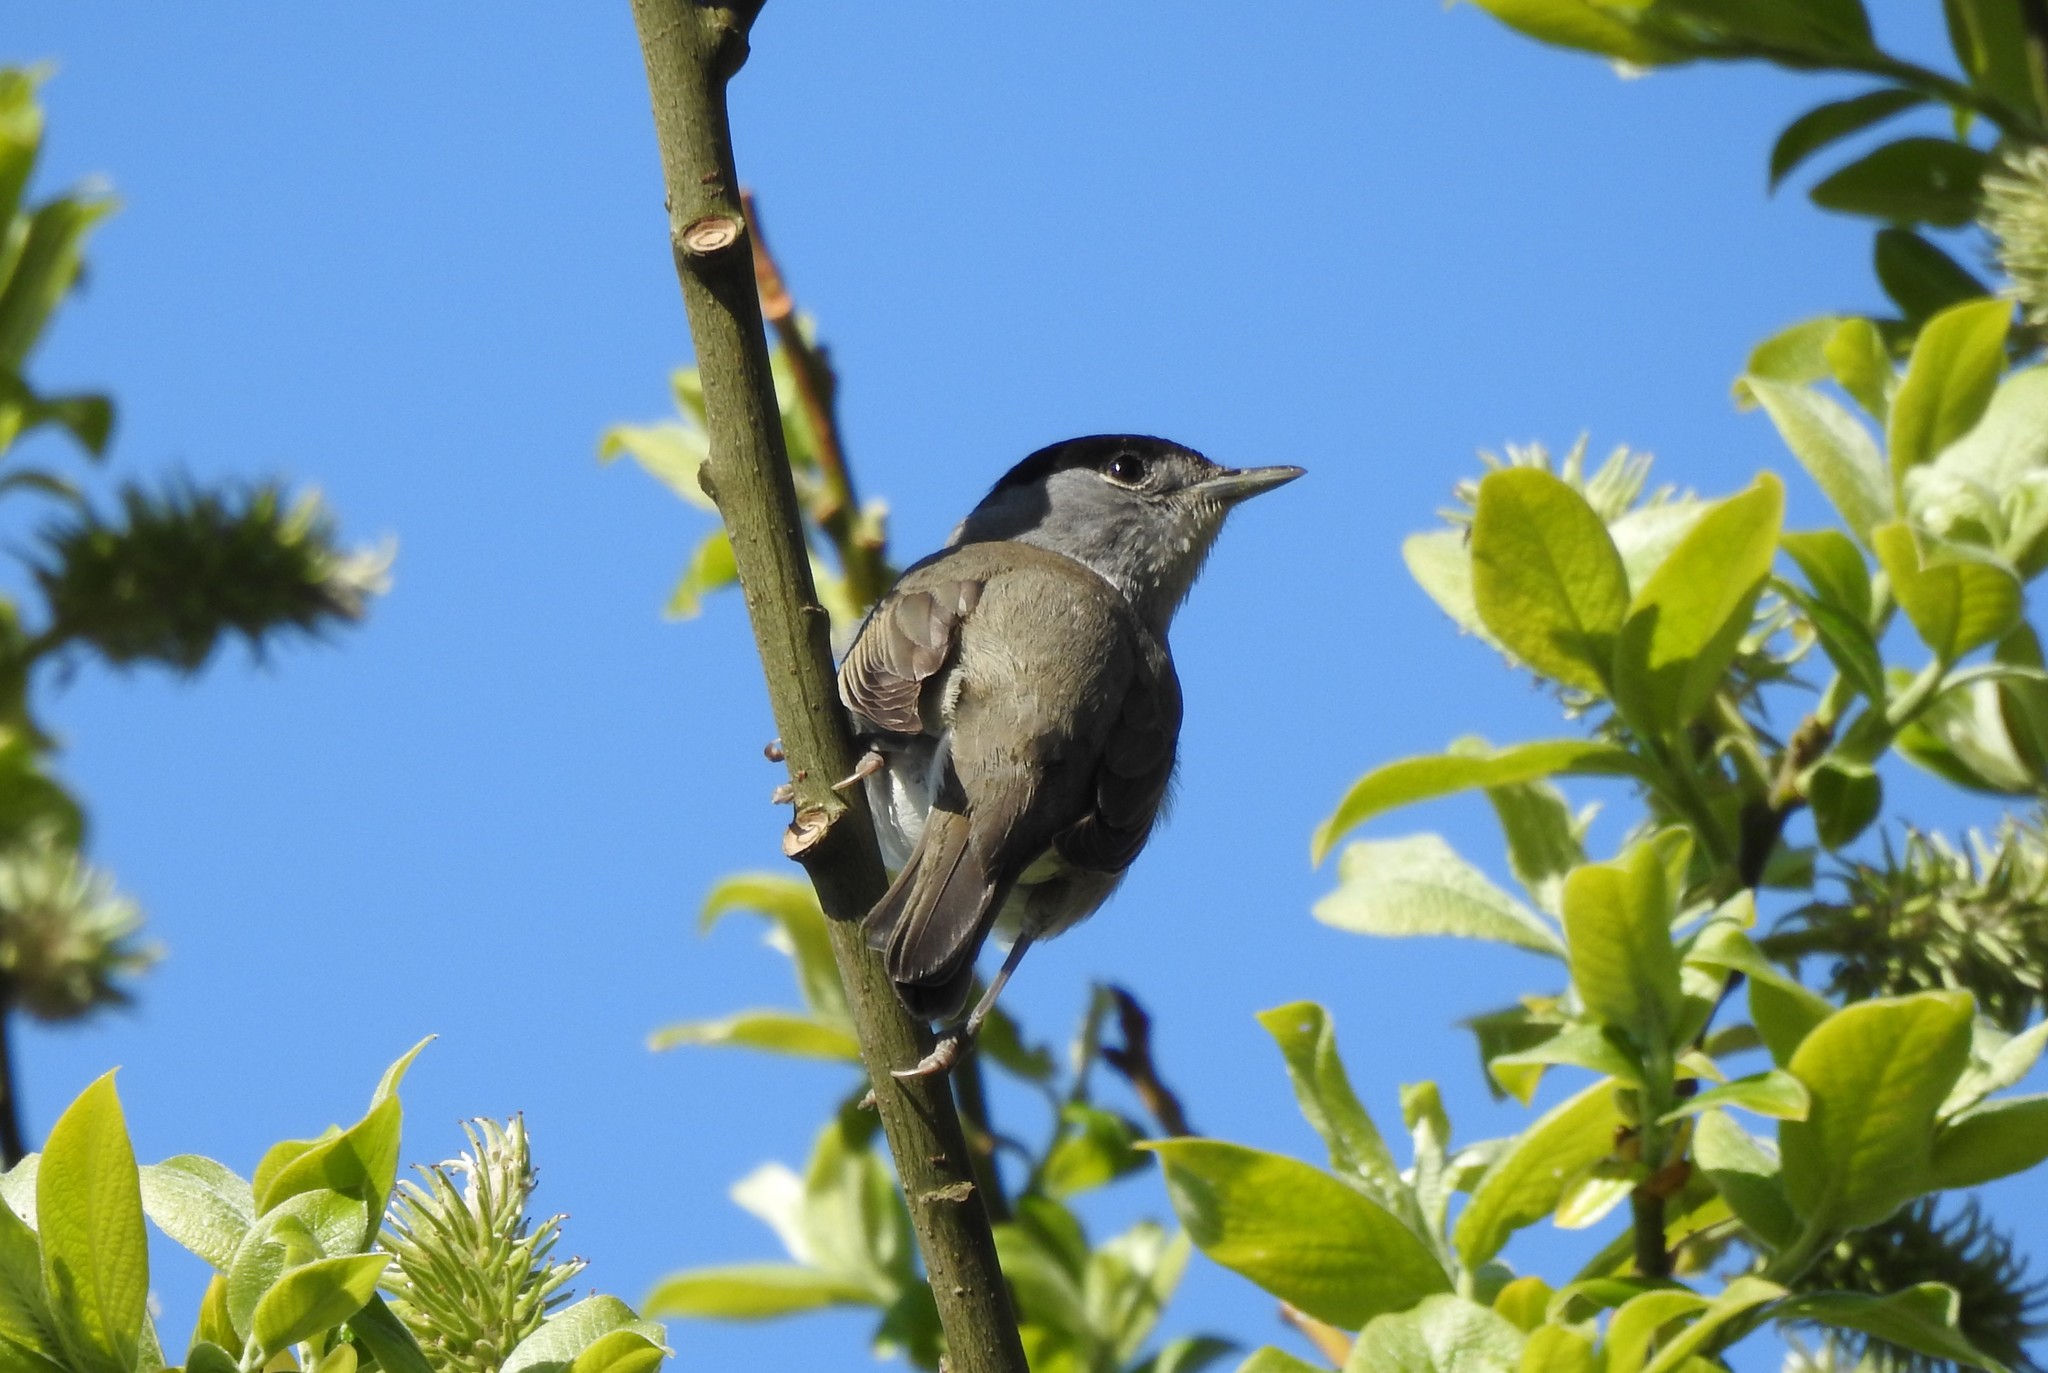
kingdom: Animalia
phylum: Chordata
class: Aves
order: Passeriformes
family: Sylviidae
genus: Sylvia
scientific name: Sylvia atricapilla
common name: Eurasian blackcap
